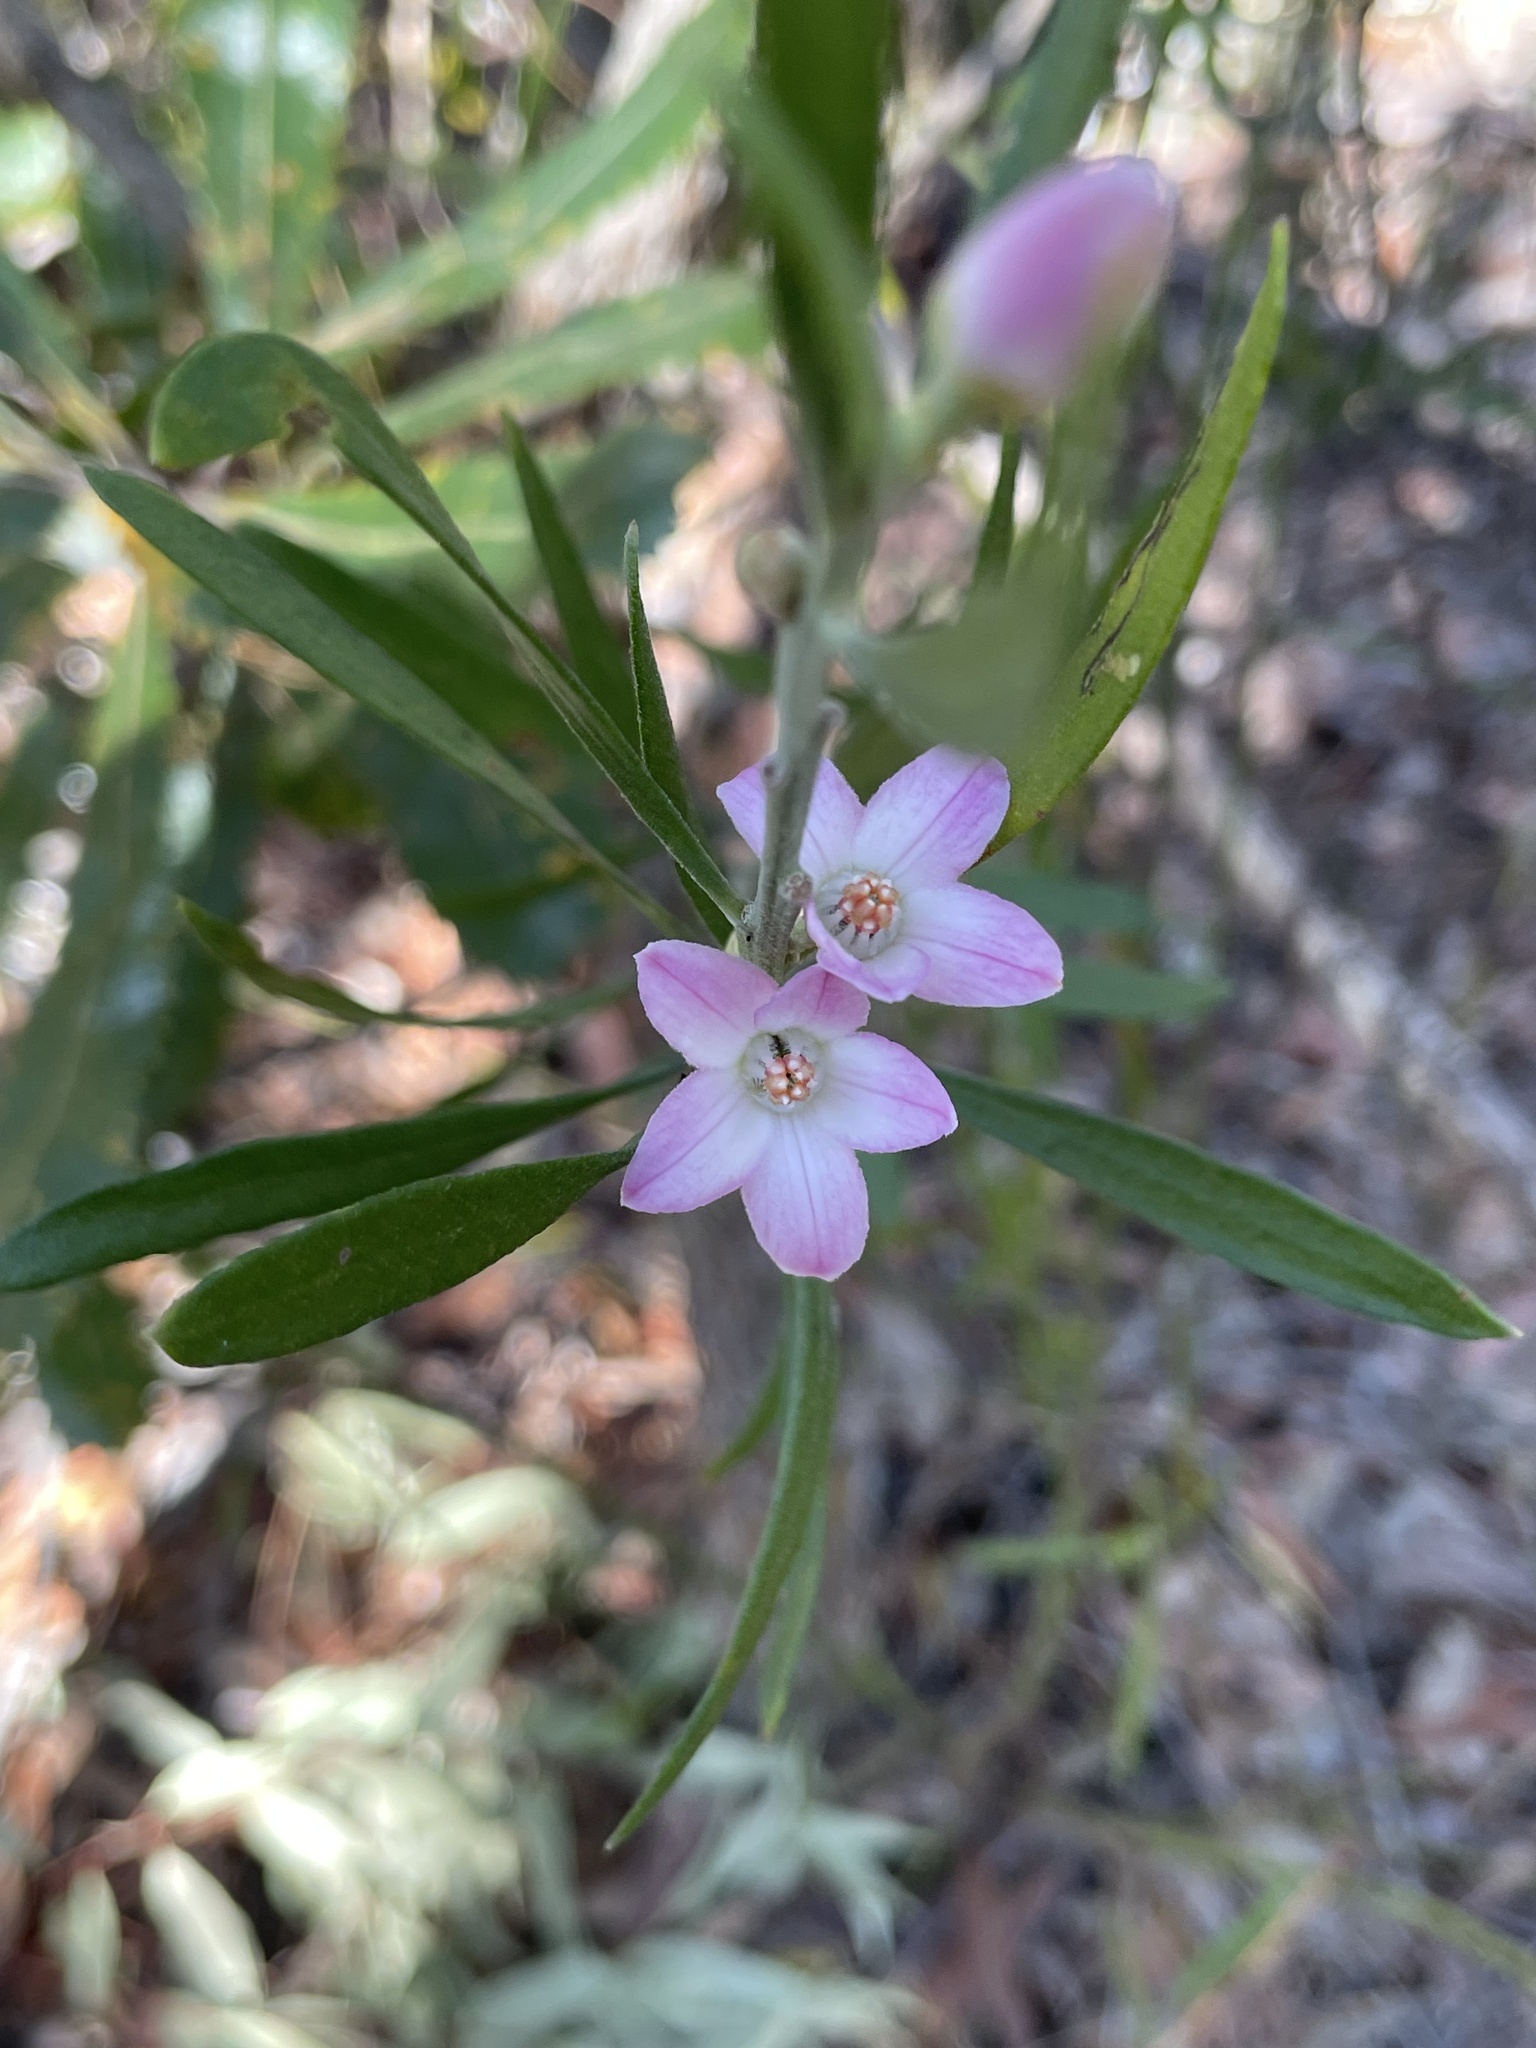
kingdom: Plantae
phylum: Tracheophyta
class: Magnoliopsida
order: Sapindales
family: Rutaceae
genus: Eriostemon
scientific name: Eriostemon australasius
